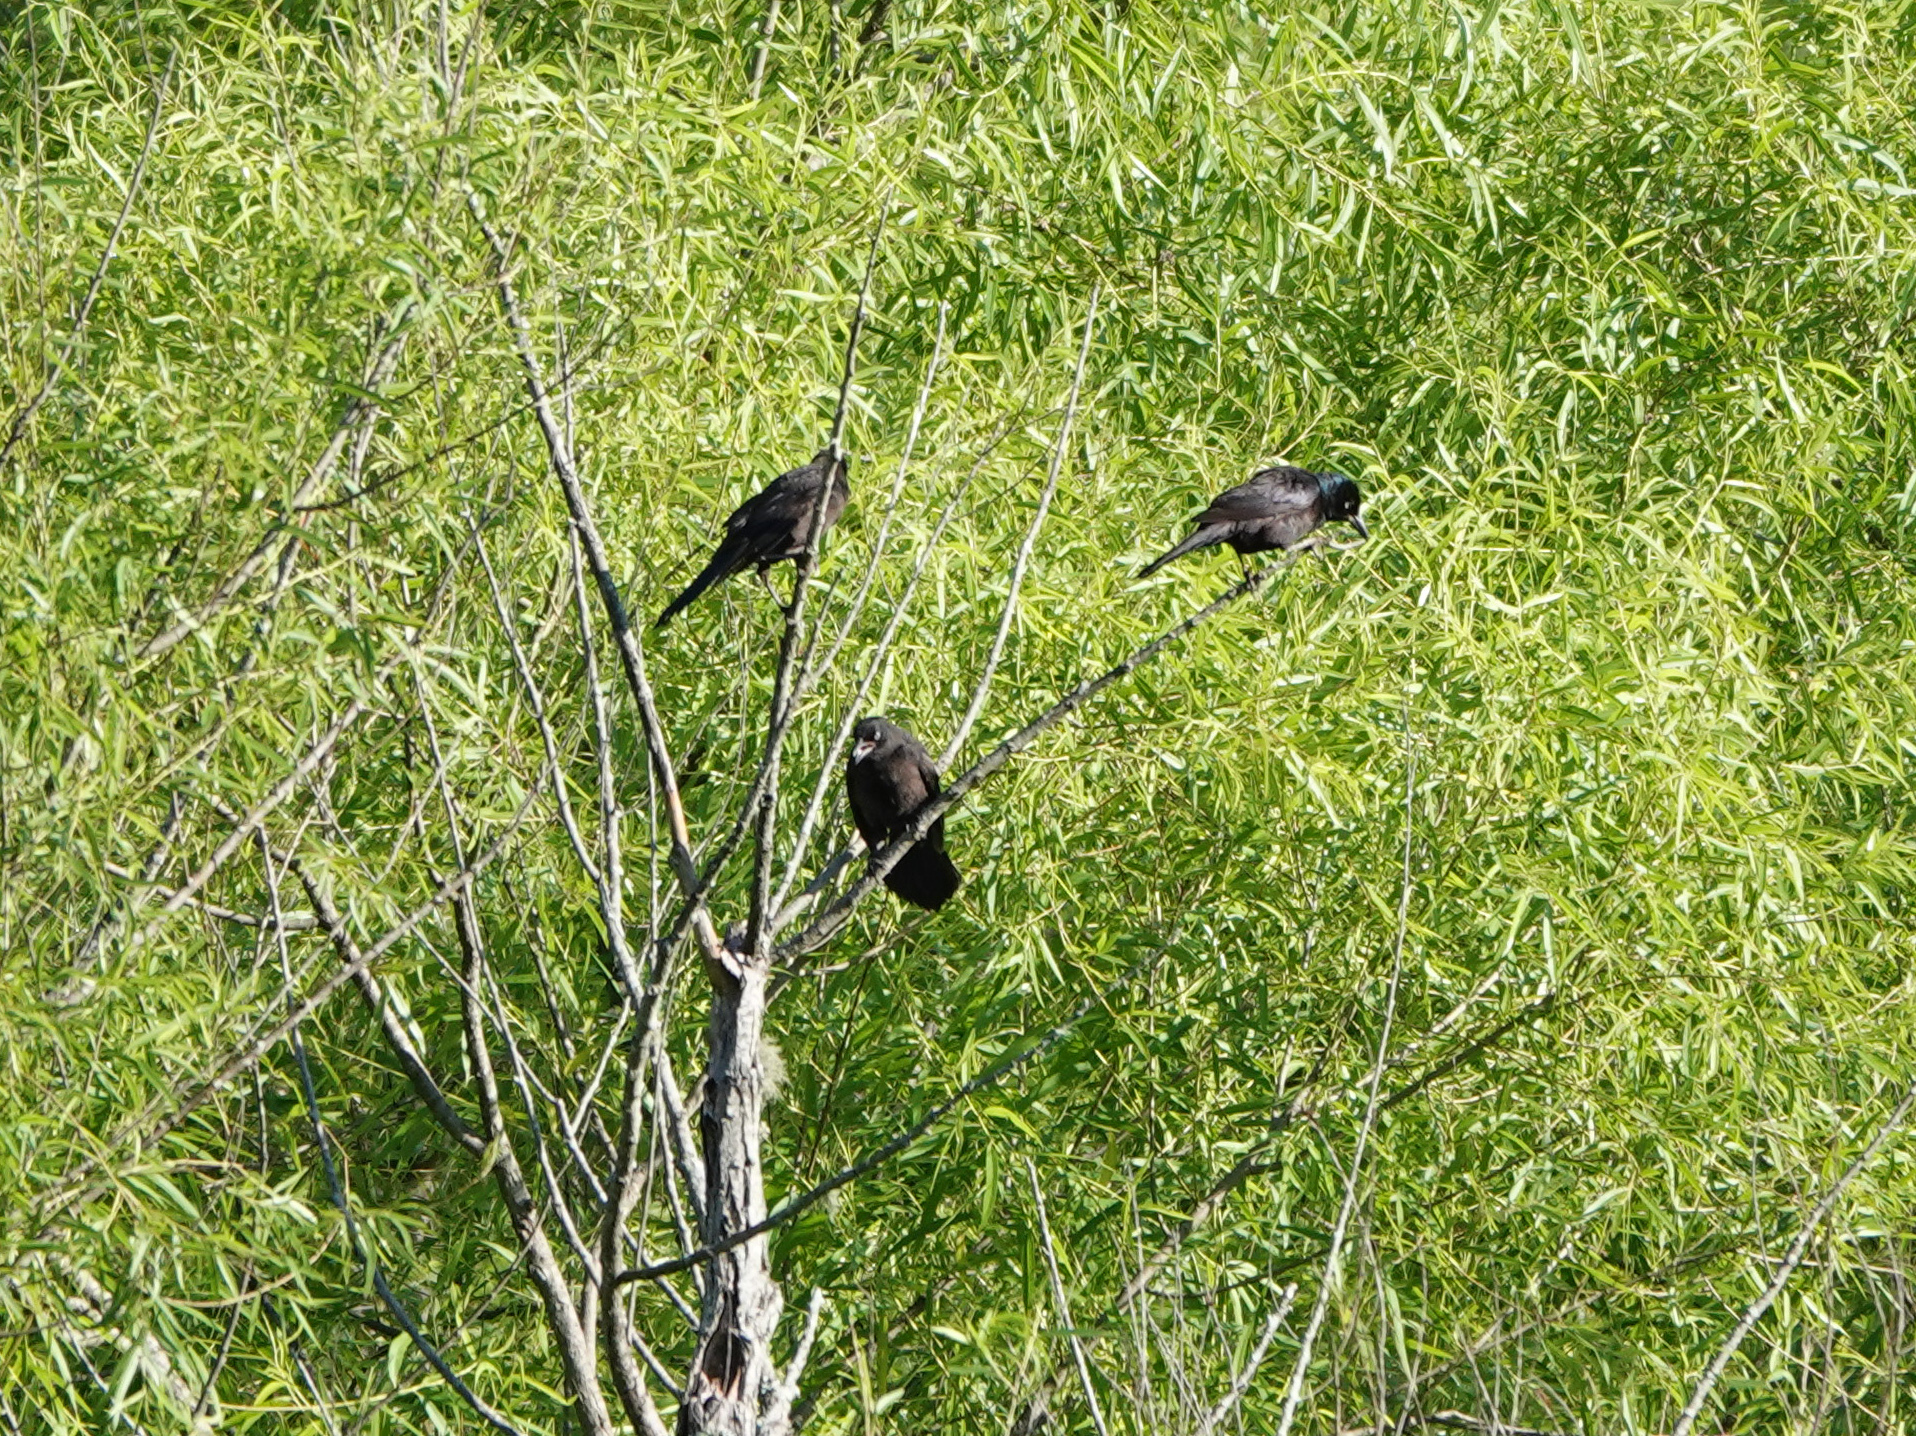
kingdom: Animalia
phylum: Chordata
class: Aves
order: Passeriformes
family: Icteridae
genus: Quiscalus
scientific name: Quiscalus quiscula
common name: Common grackle
